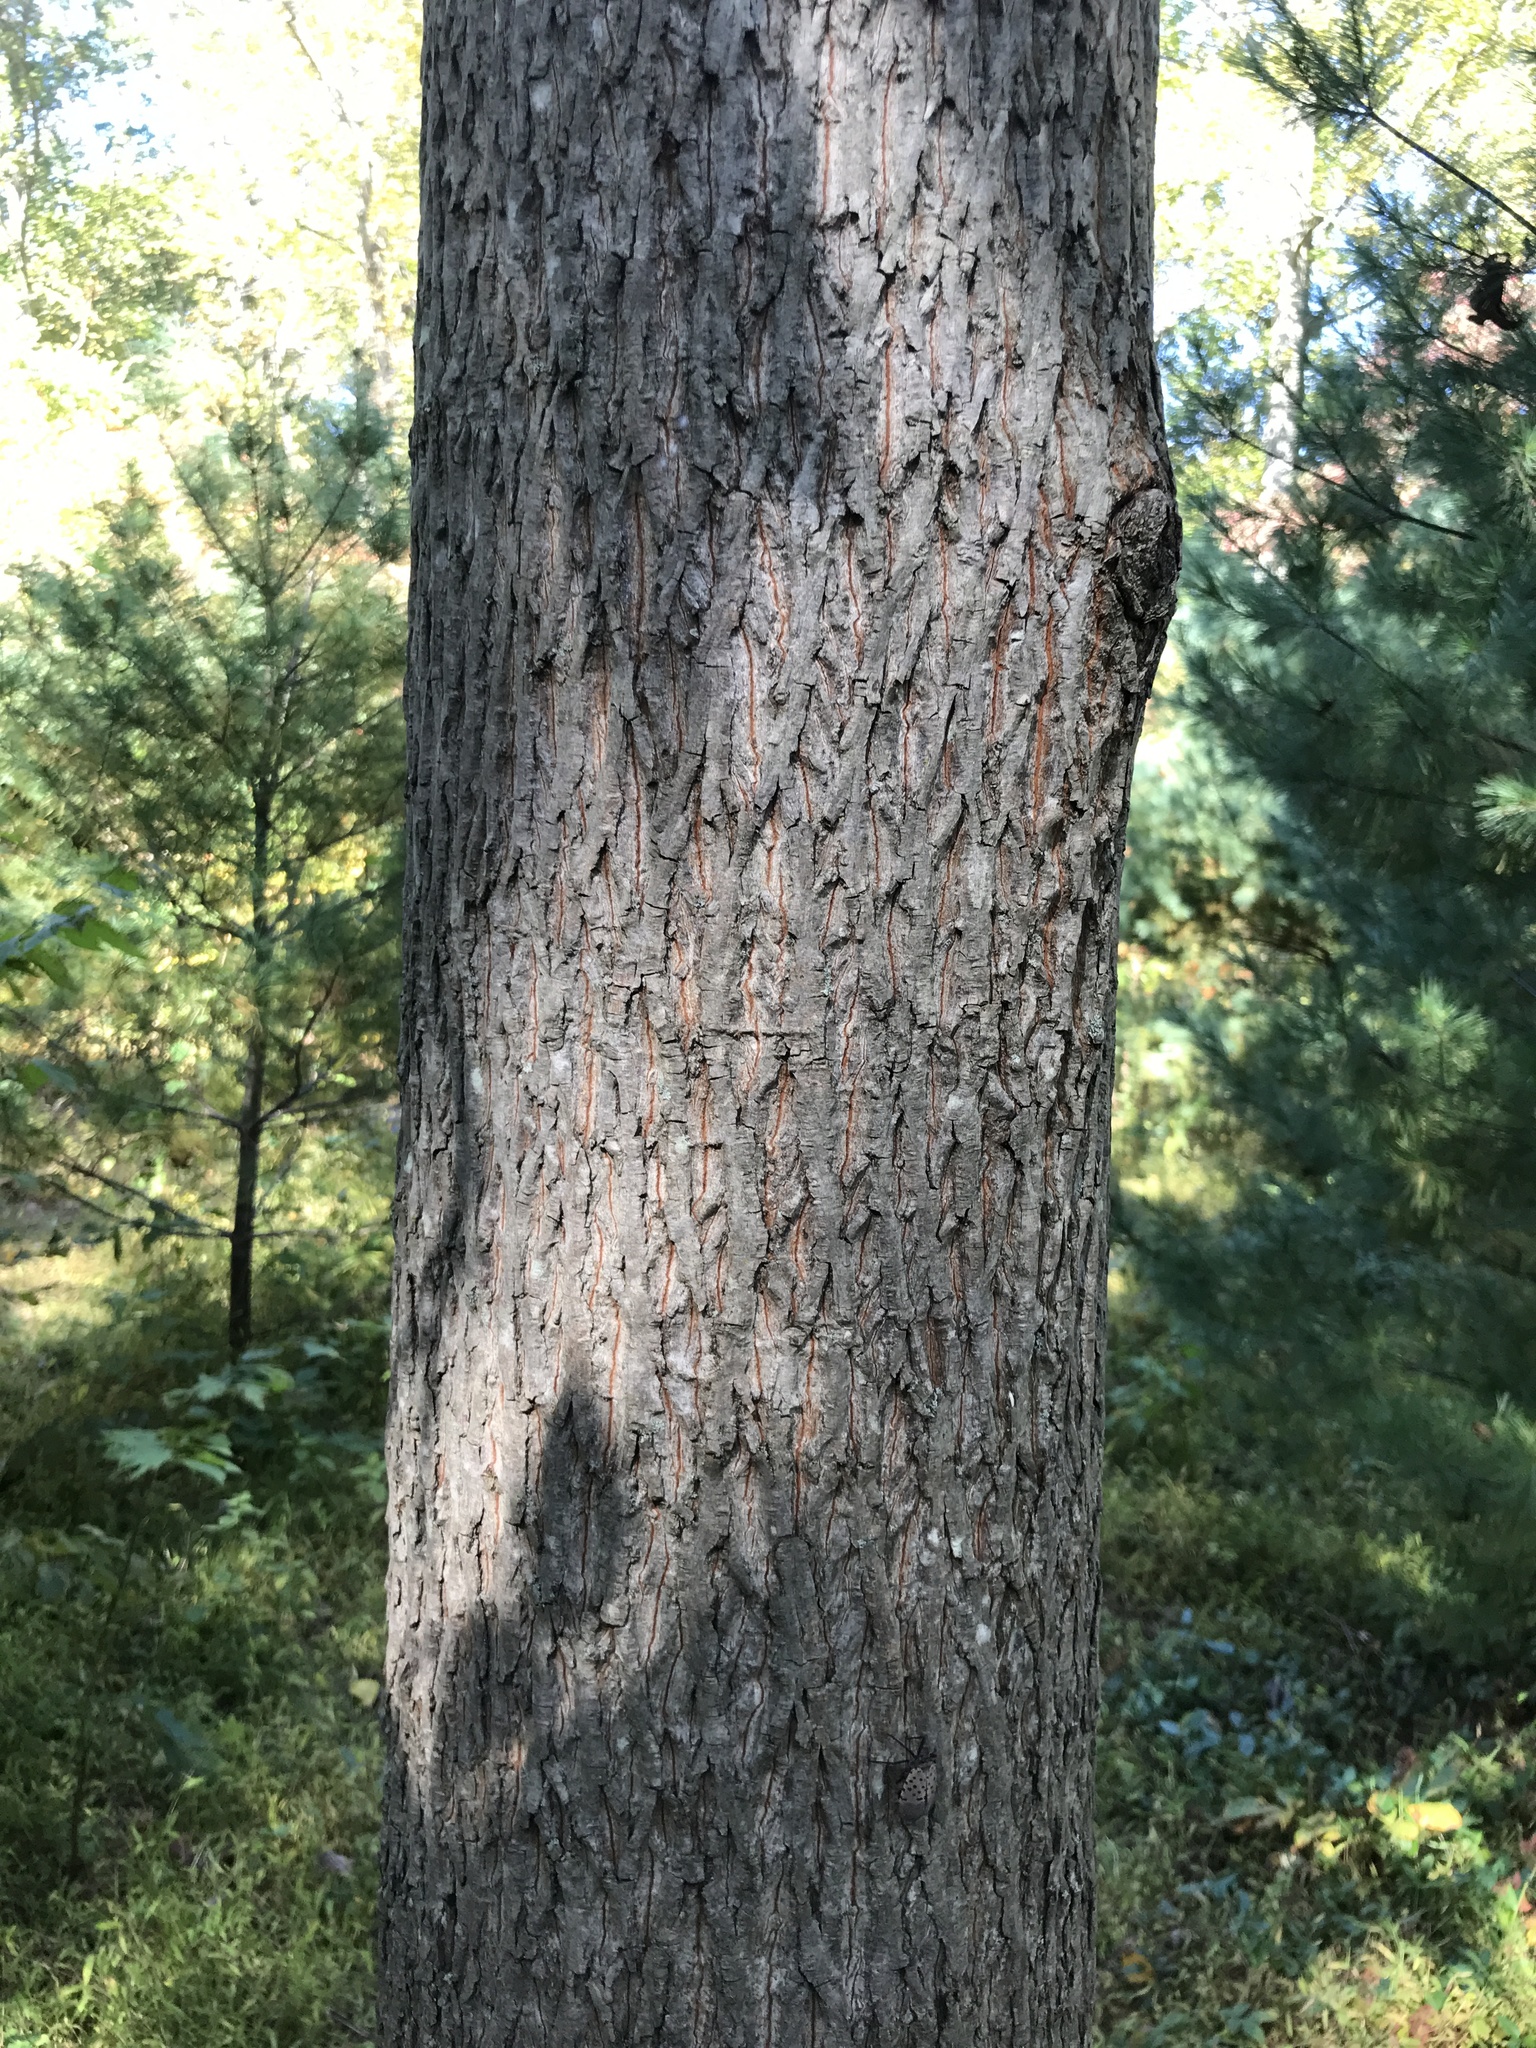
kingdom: Plantae
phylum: Tracheophyta
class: Magnoliopsida
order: Fagales
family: Juglandaceae
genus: Carya
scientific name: Carya alba
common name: Mockernut hickory
